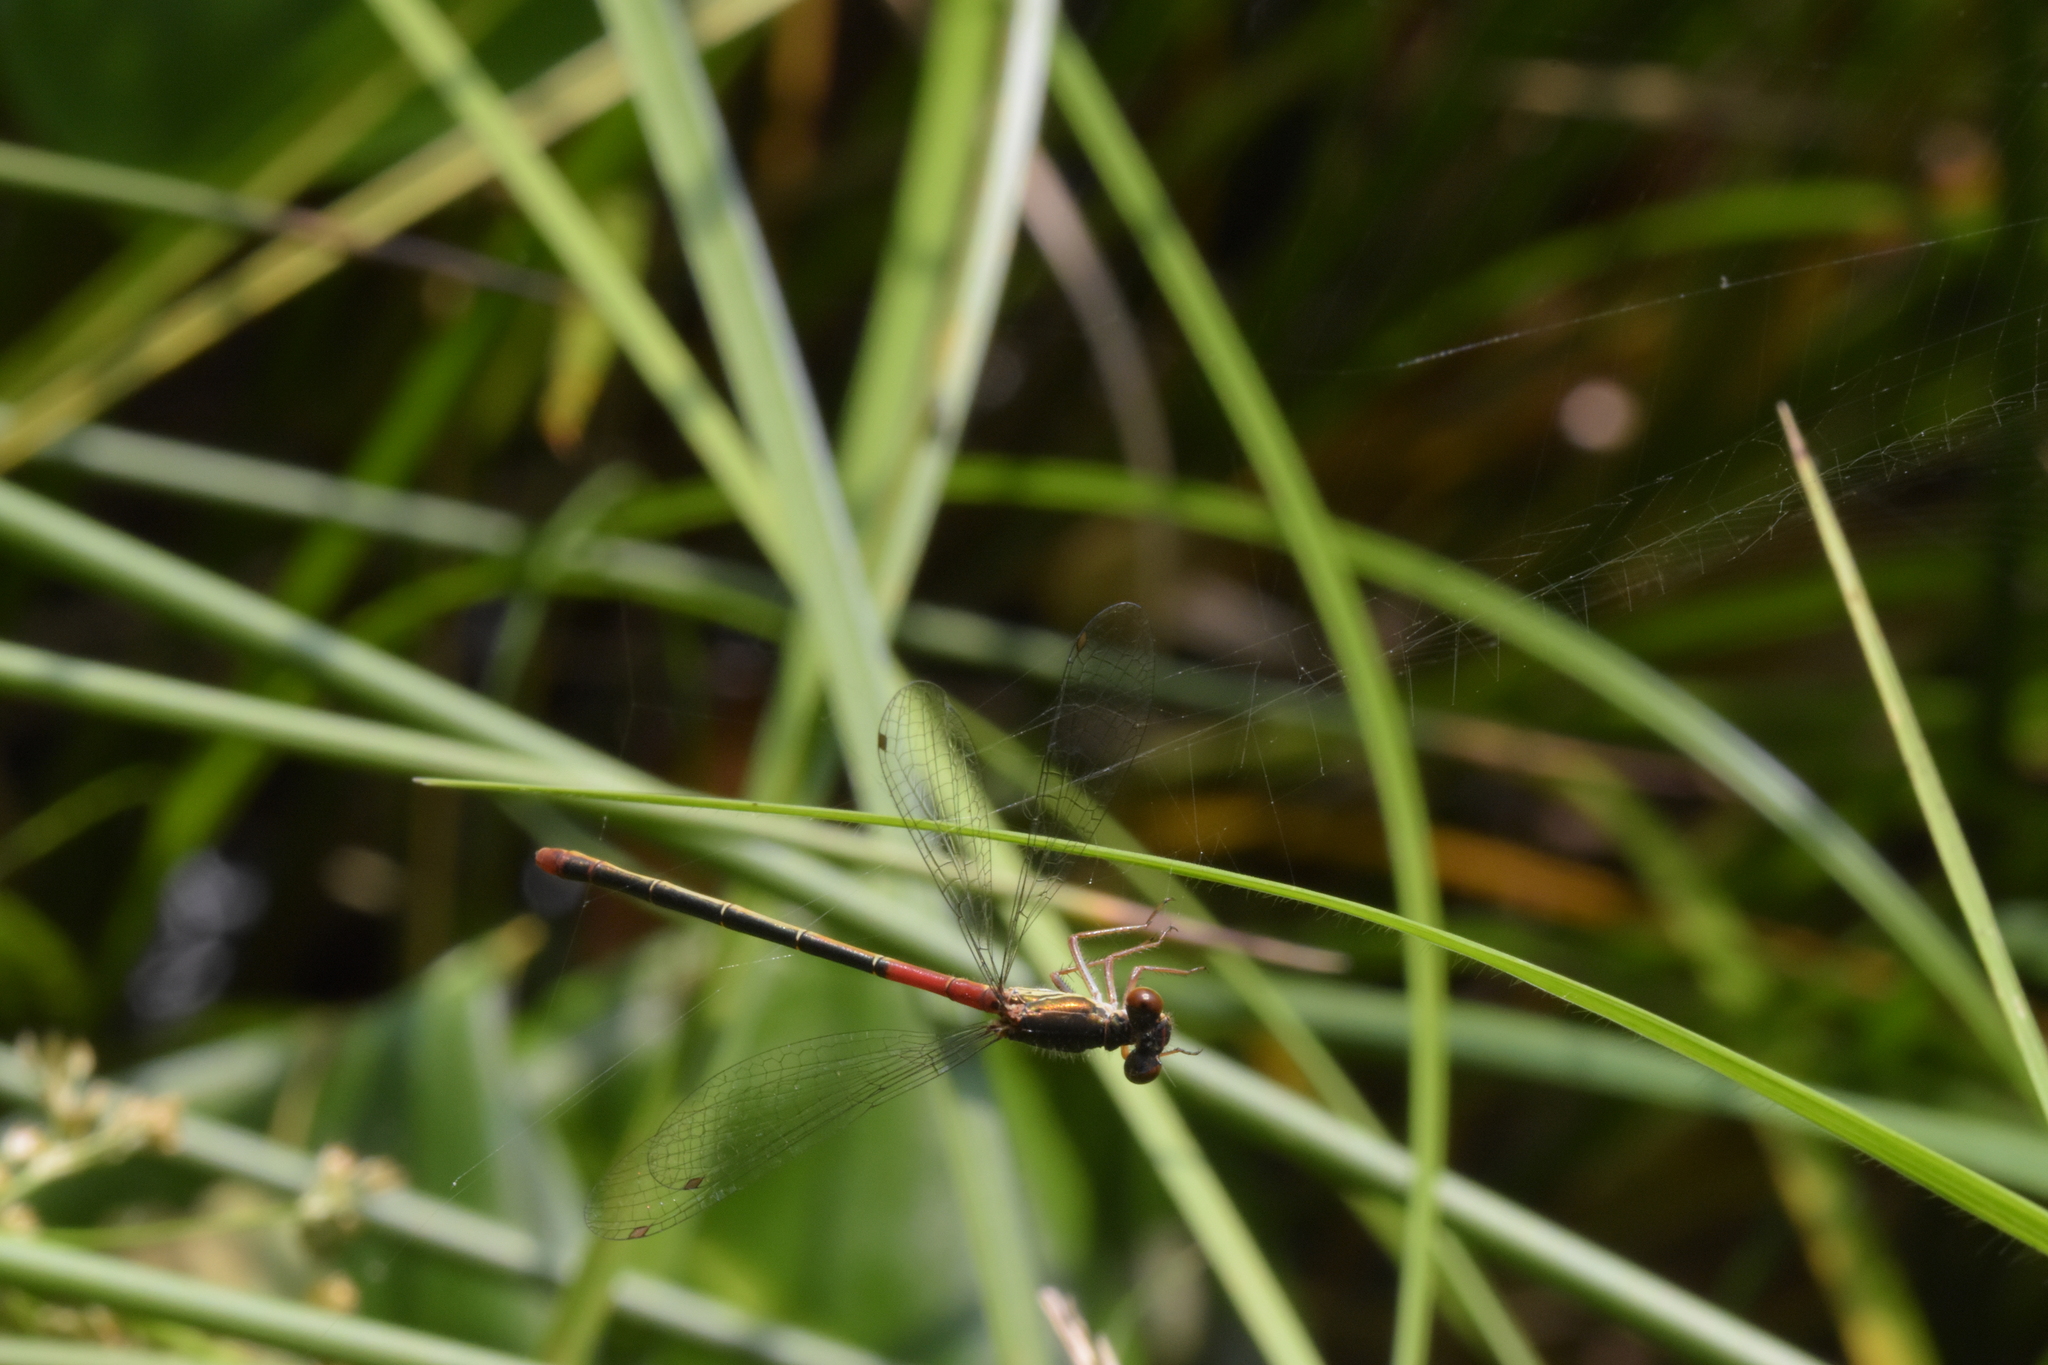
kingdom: Animalia
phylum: Arthropoda
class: Insecta
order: Odonata
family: Coenagrionidae
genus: Ceriagrion
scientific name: Ceriagrion tenellum
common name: Small red damselfly
